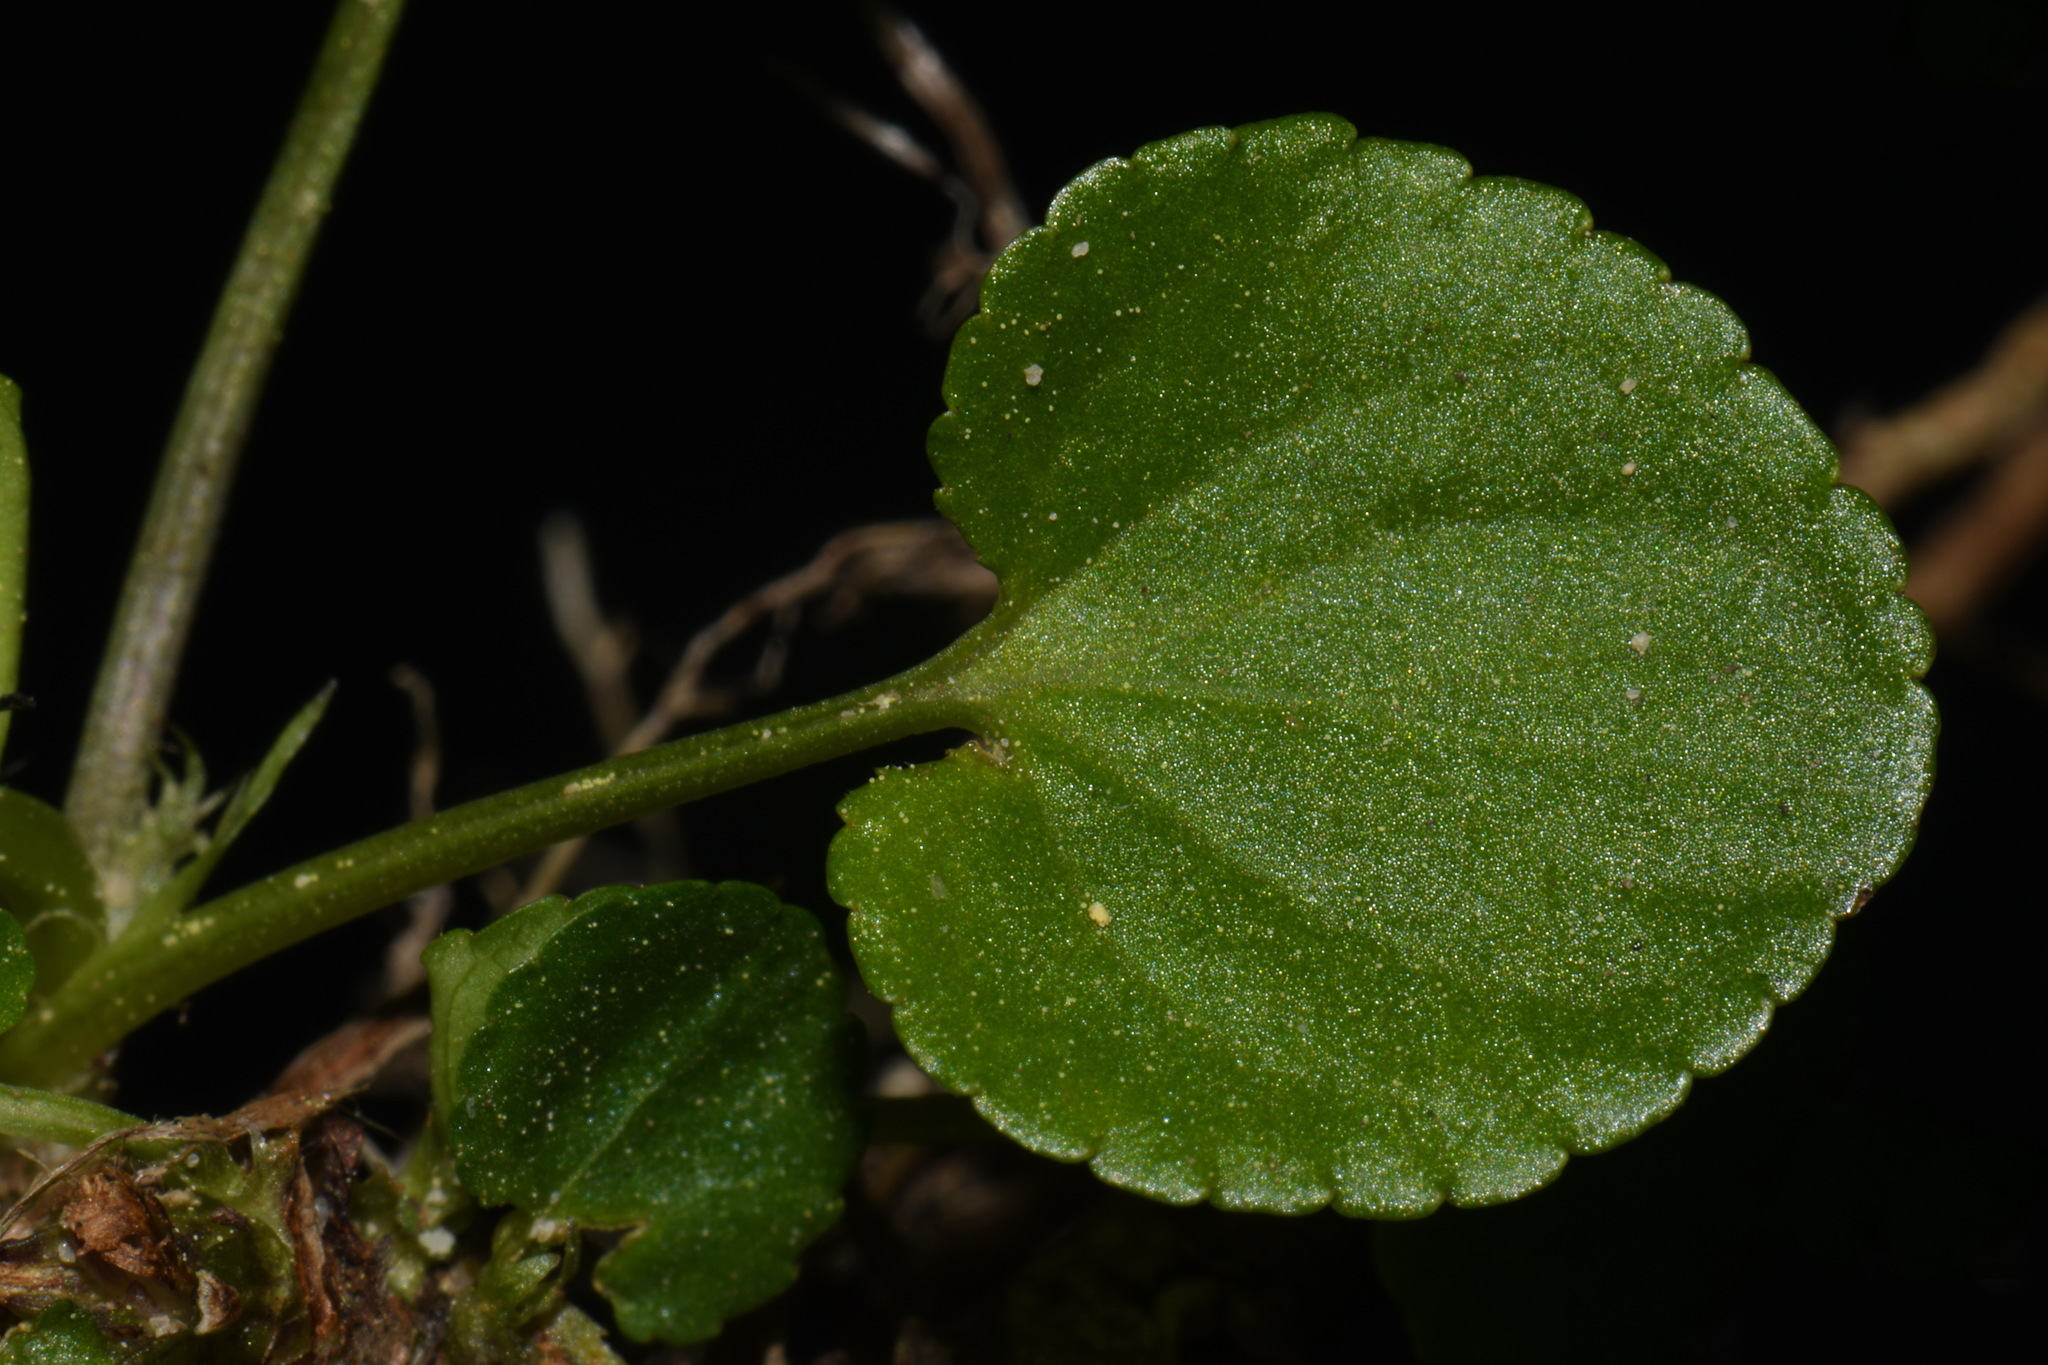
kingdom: Plantae
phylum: Tracheophyta
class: Magnoliopsida
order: Malpighiales
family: Violaceae
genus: Viola
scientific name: Viola labradorica
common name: Labrador violet
